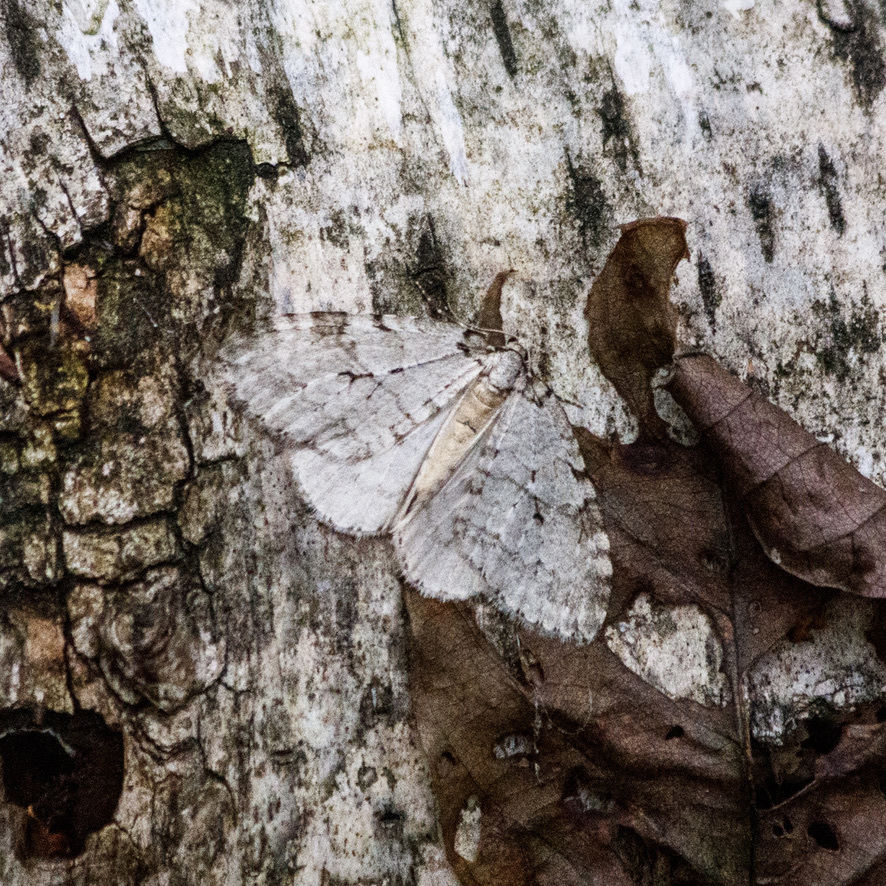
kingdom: Animalia
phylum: Arthropoda
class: Insecta
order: Lepidoptera
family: Geometridae
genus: Epirrita
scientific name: Epirrita autumnata
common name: Autumnal moth
